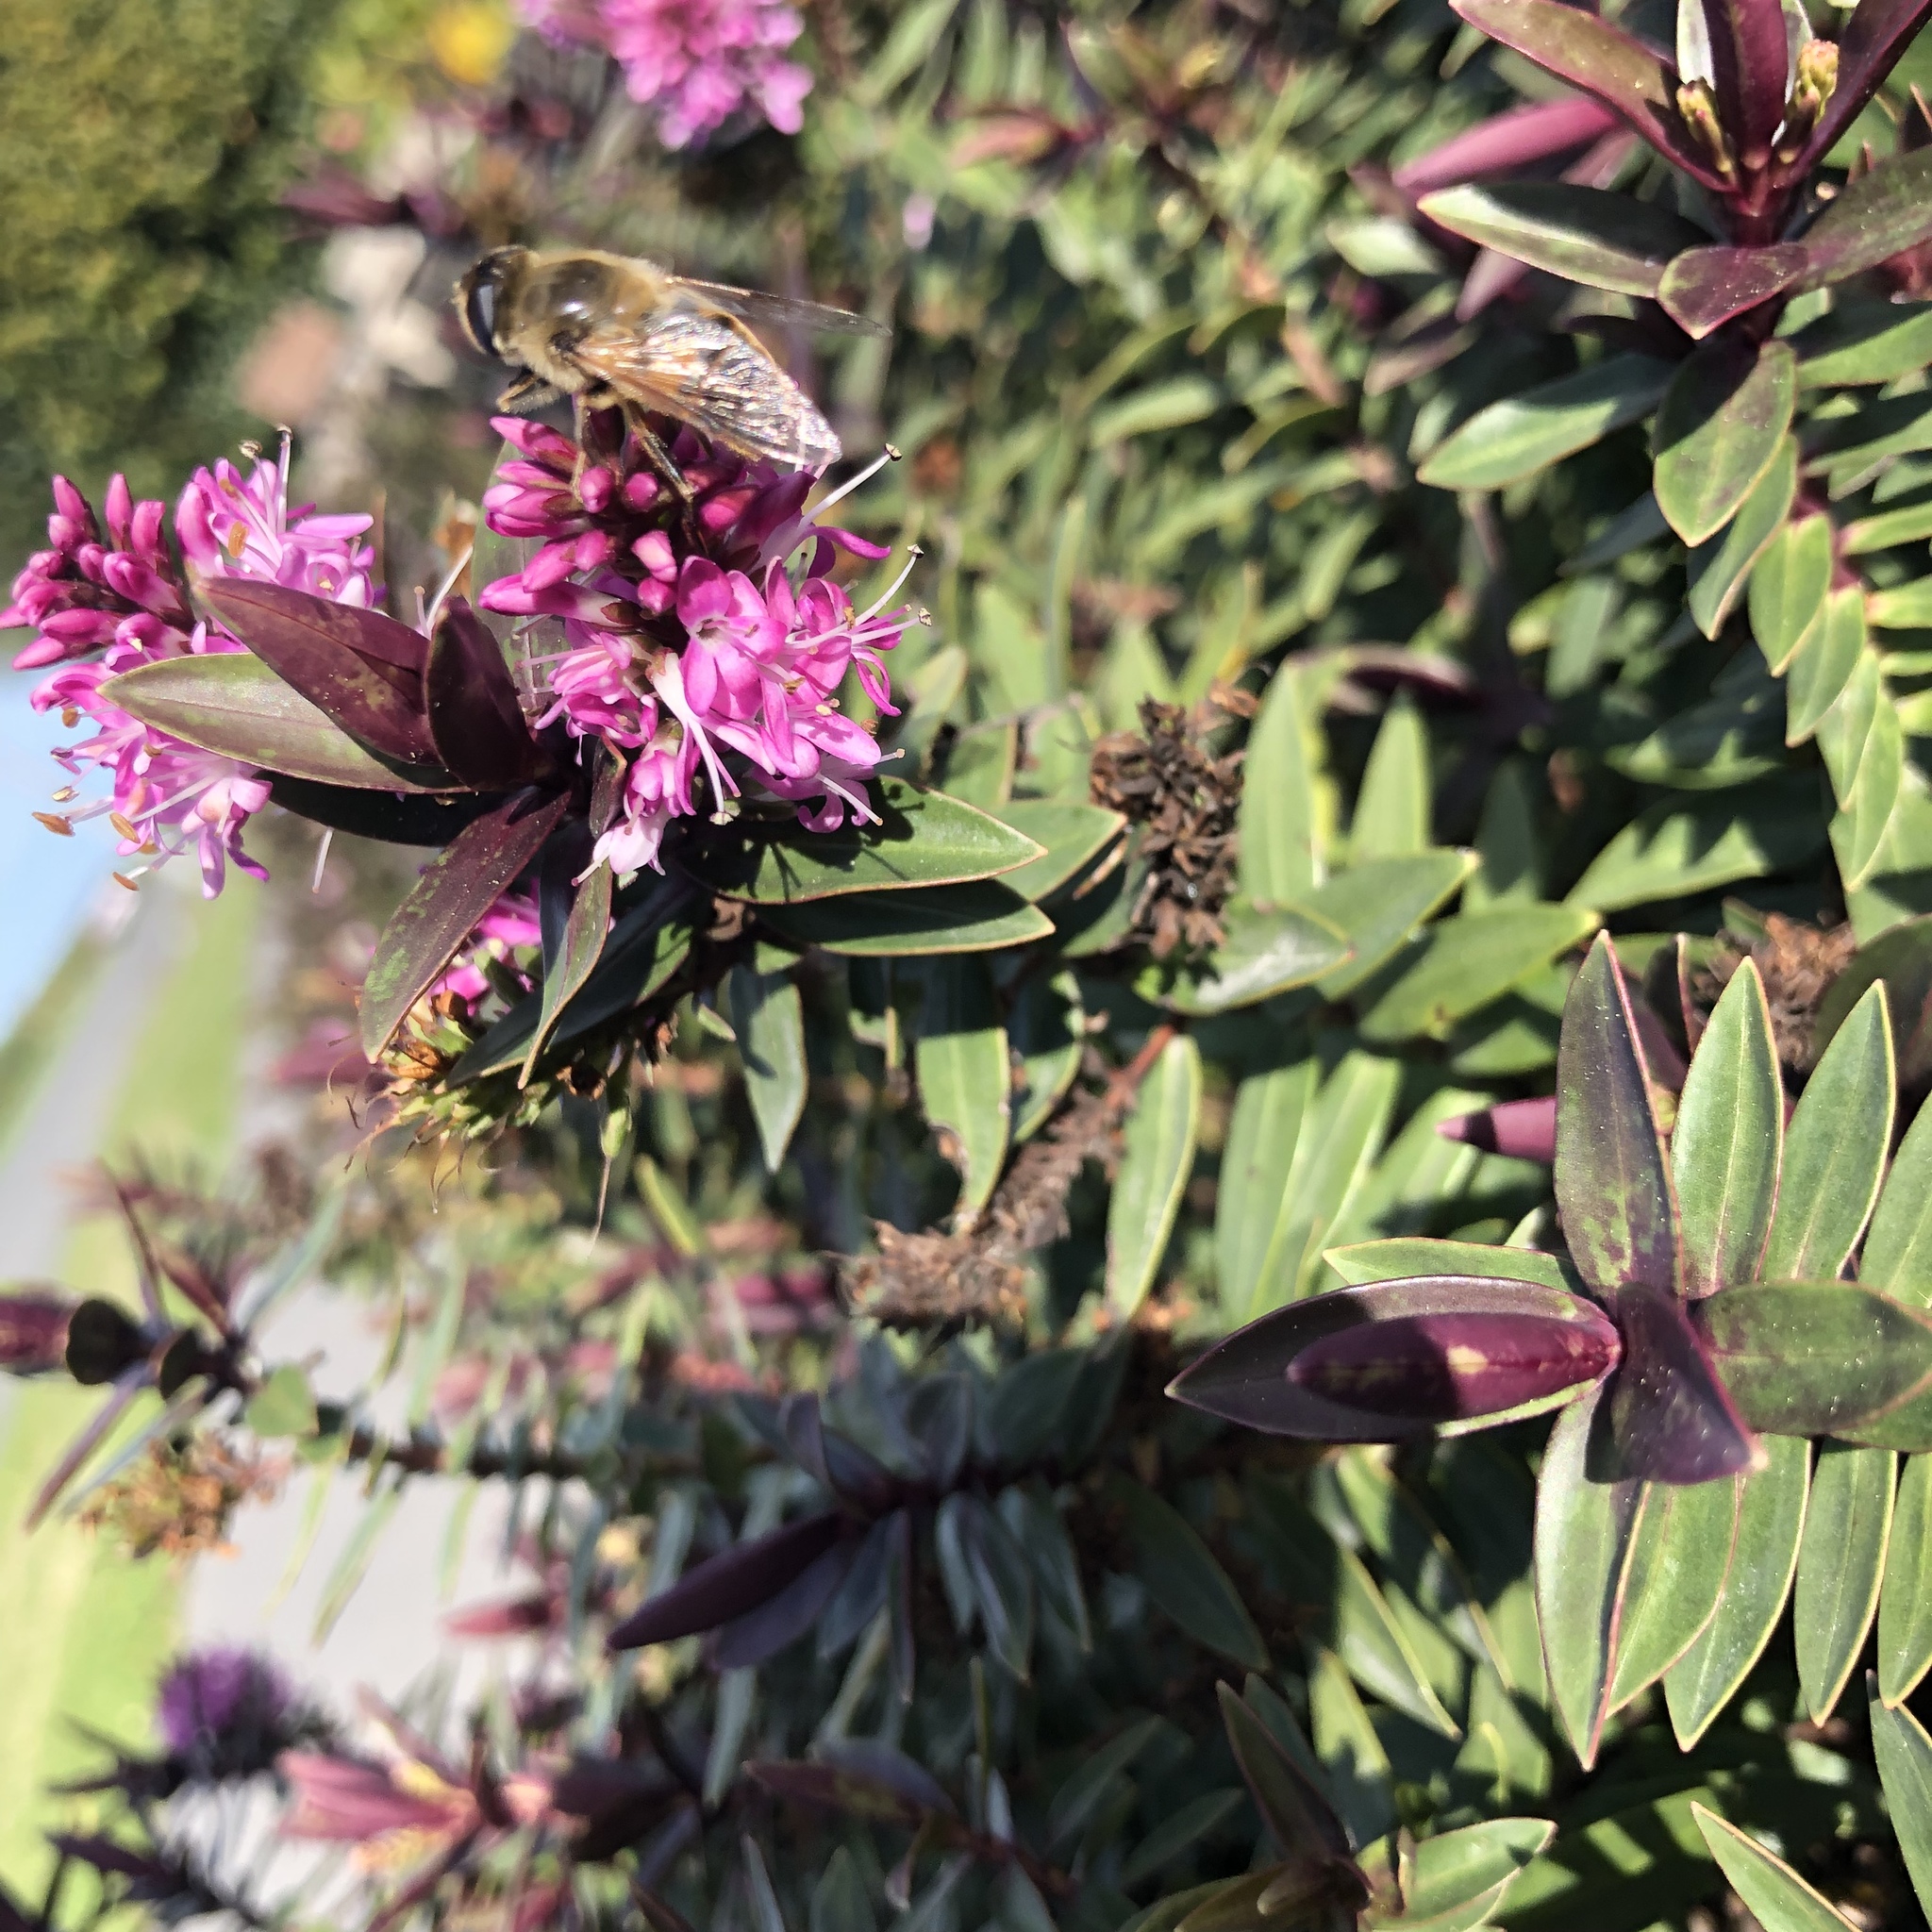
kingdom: Animalia
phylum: Arthropoda
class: Insecta
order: Diptera
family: Syrphidae
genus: Eristalis
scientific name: Eristalis tenax
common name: Drone fly
